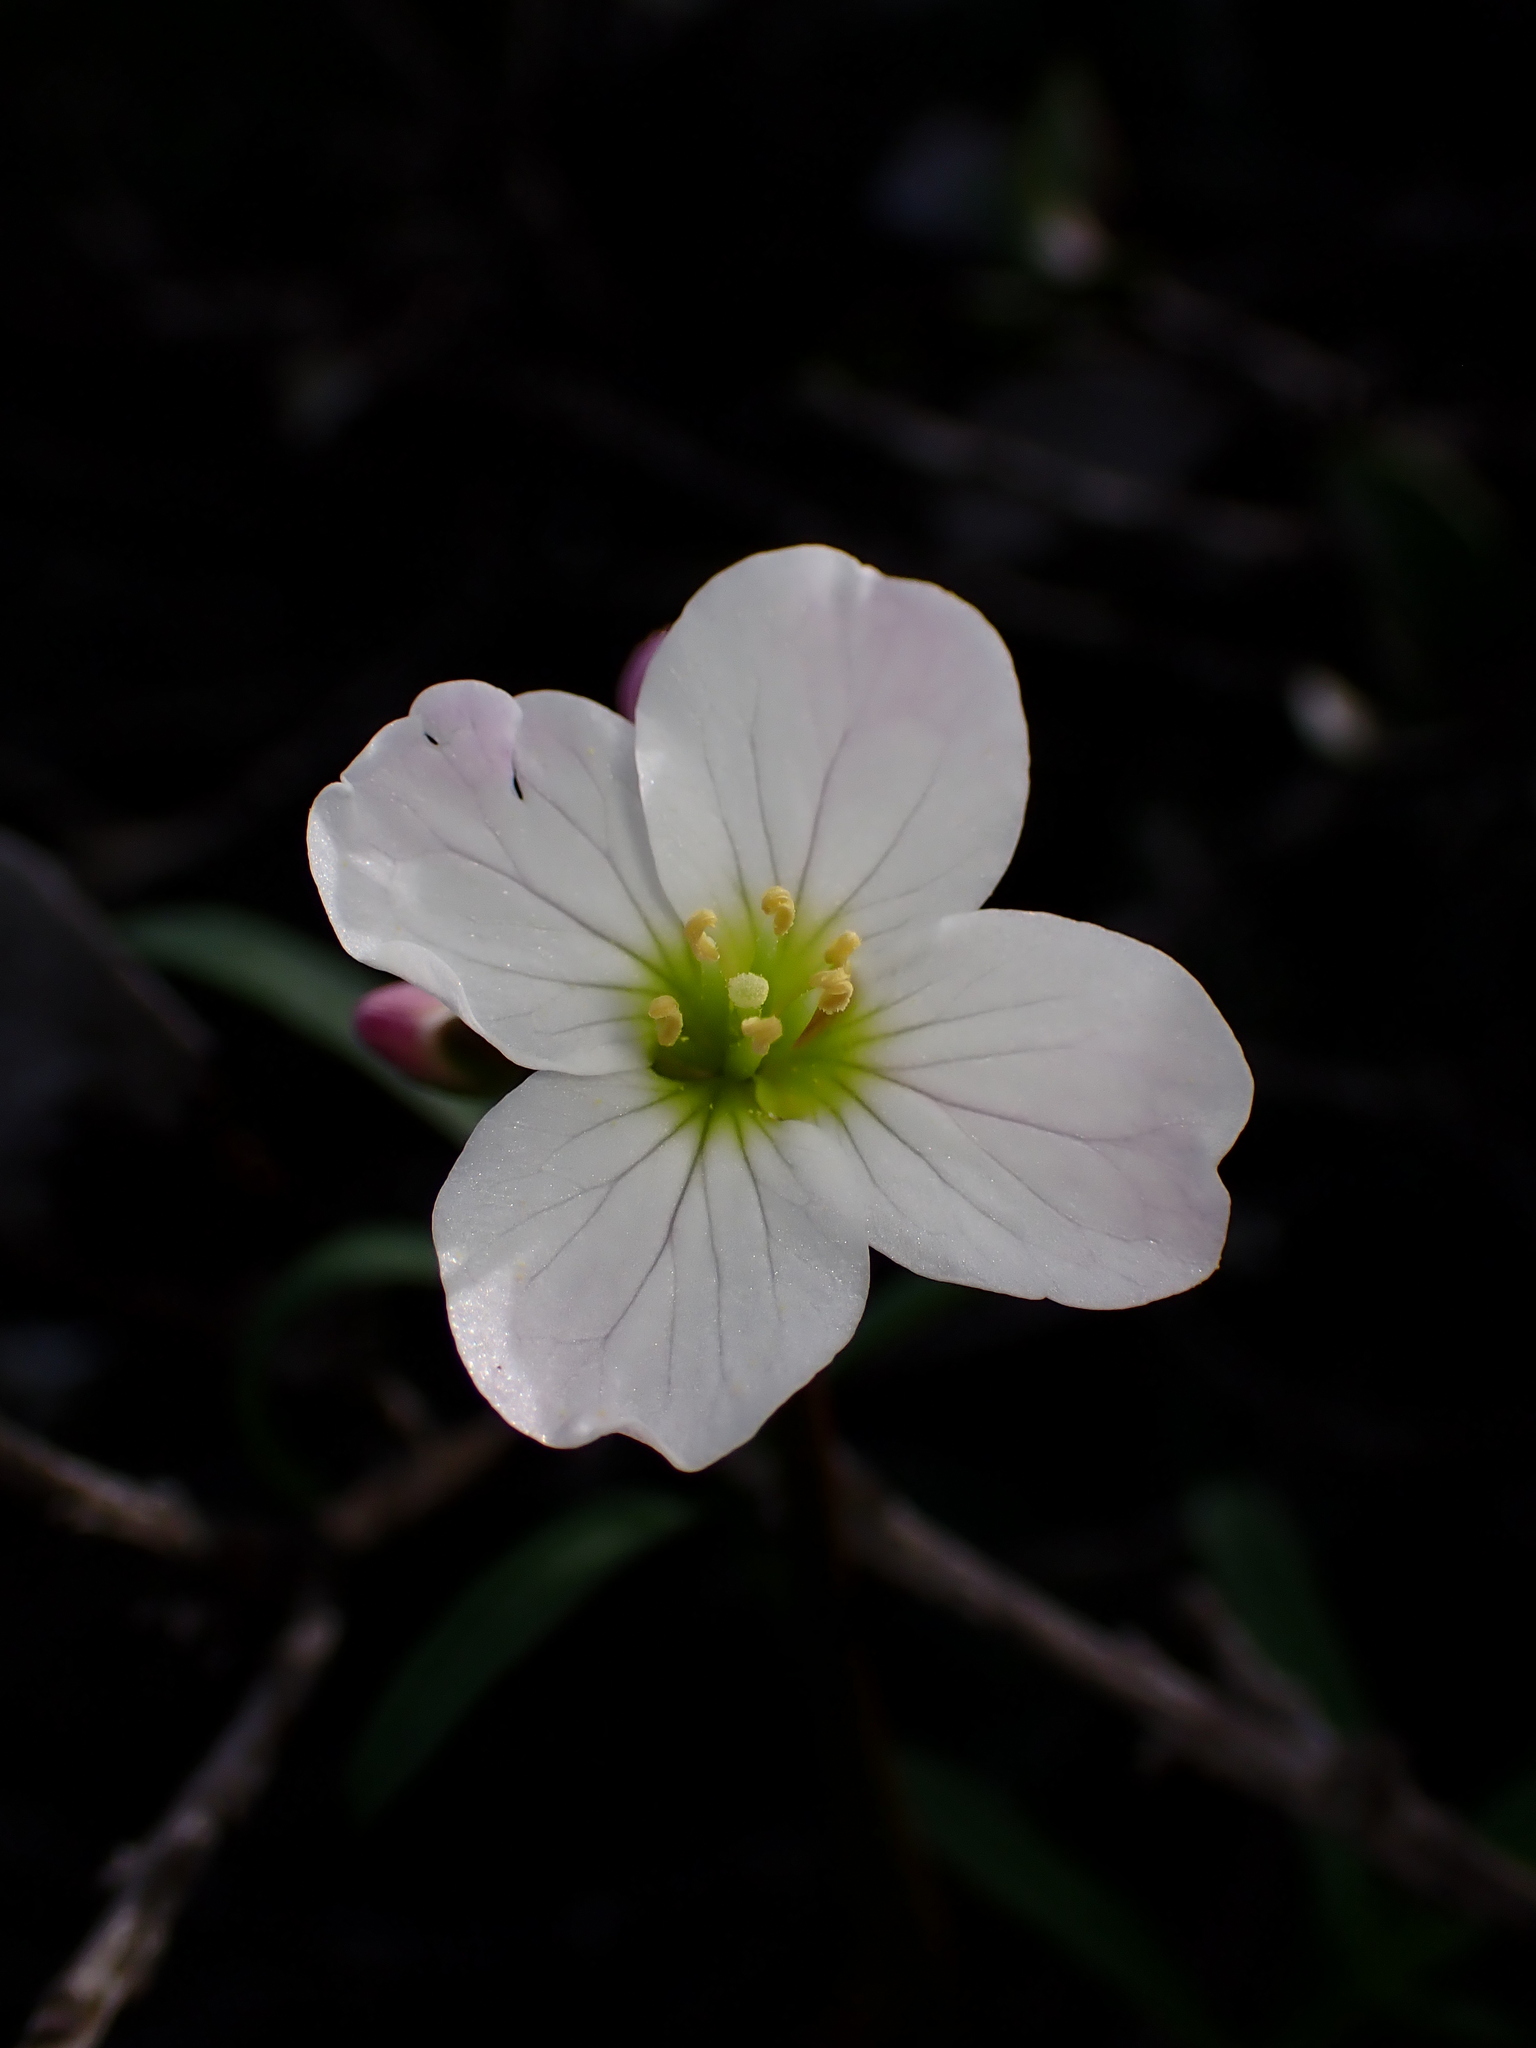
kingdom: Plantae
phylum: Tracheophyta
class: Magnoliopsida
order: Brassicales
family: Brassicaceae
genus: Cardamine
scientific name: Cardamine californica
